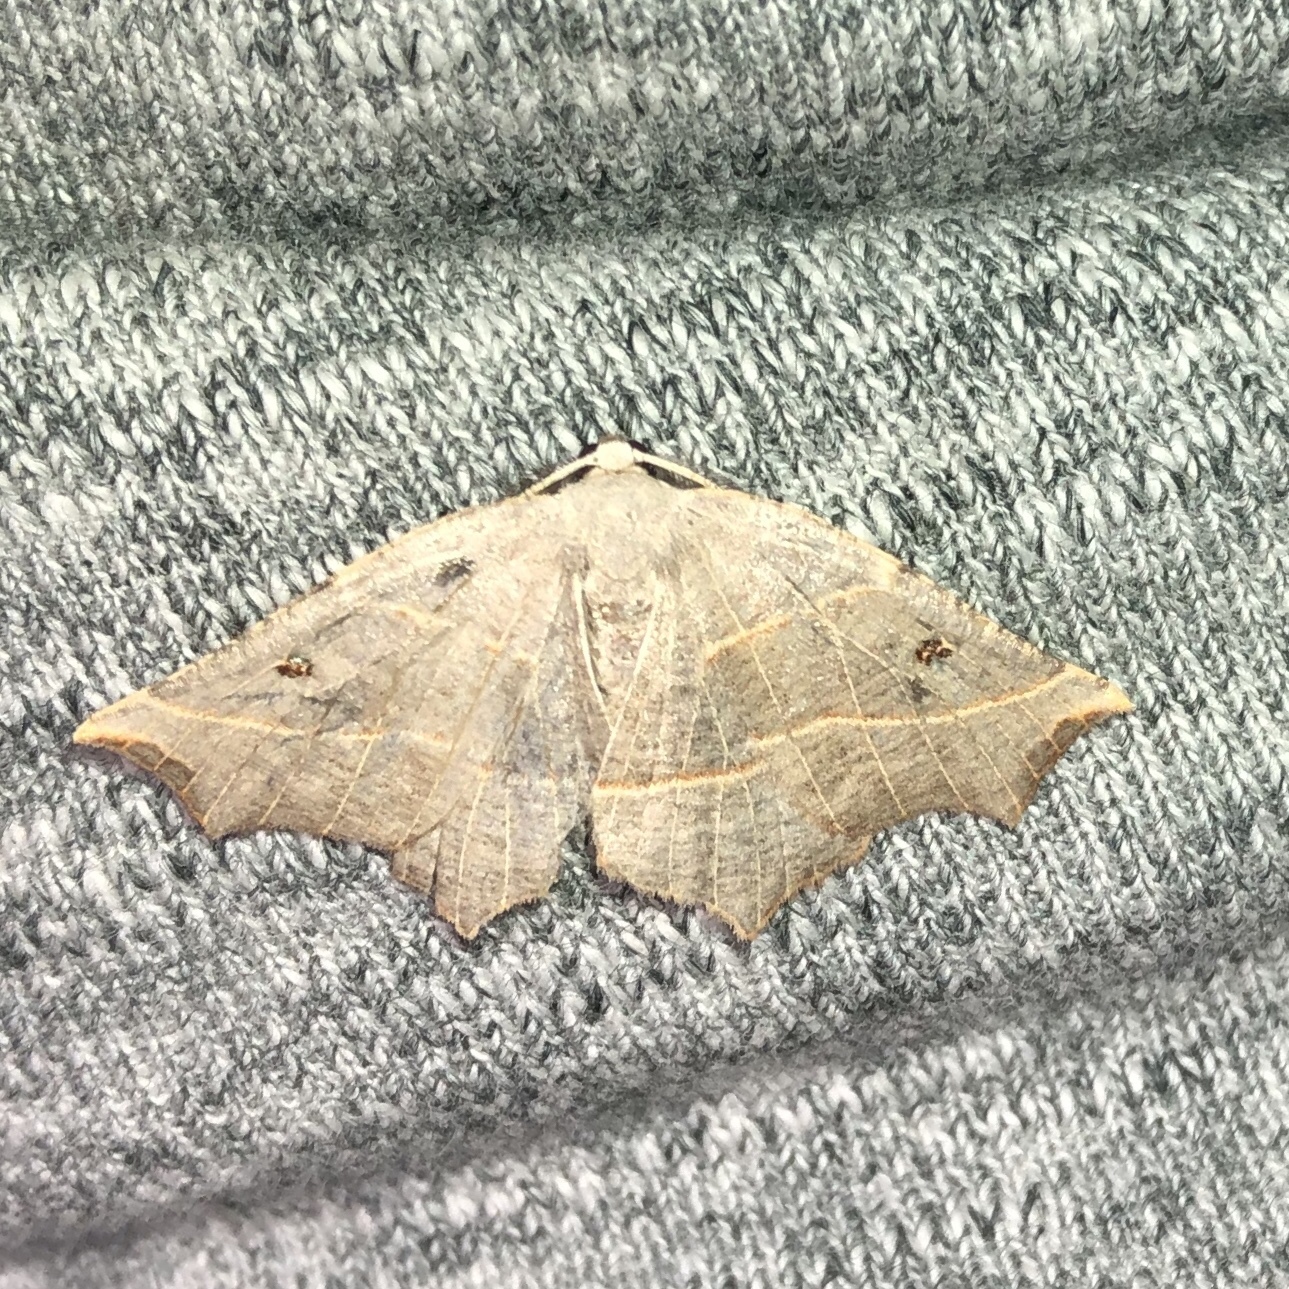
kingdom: Animalia
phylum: Arthropoda
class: Insecta
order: Lepidoptera
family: Geometridae
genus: Metanema
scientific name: Metanema inatomaria
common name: Pale metanema
